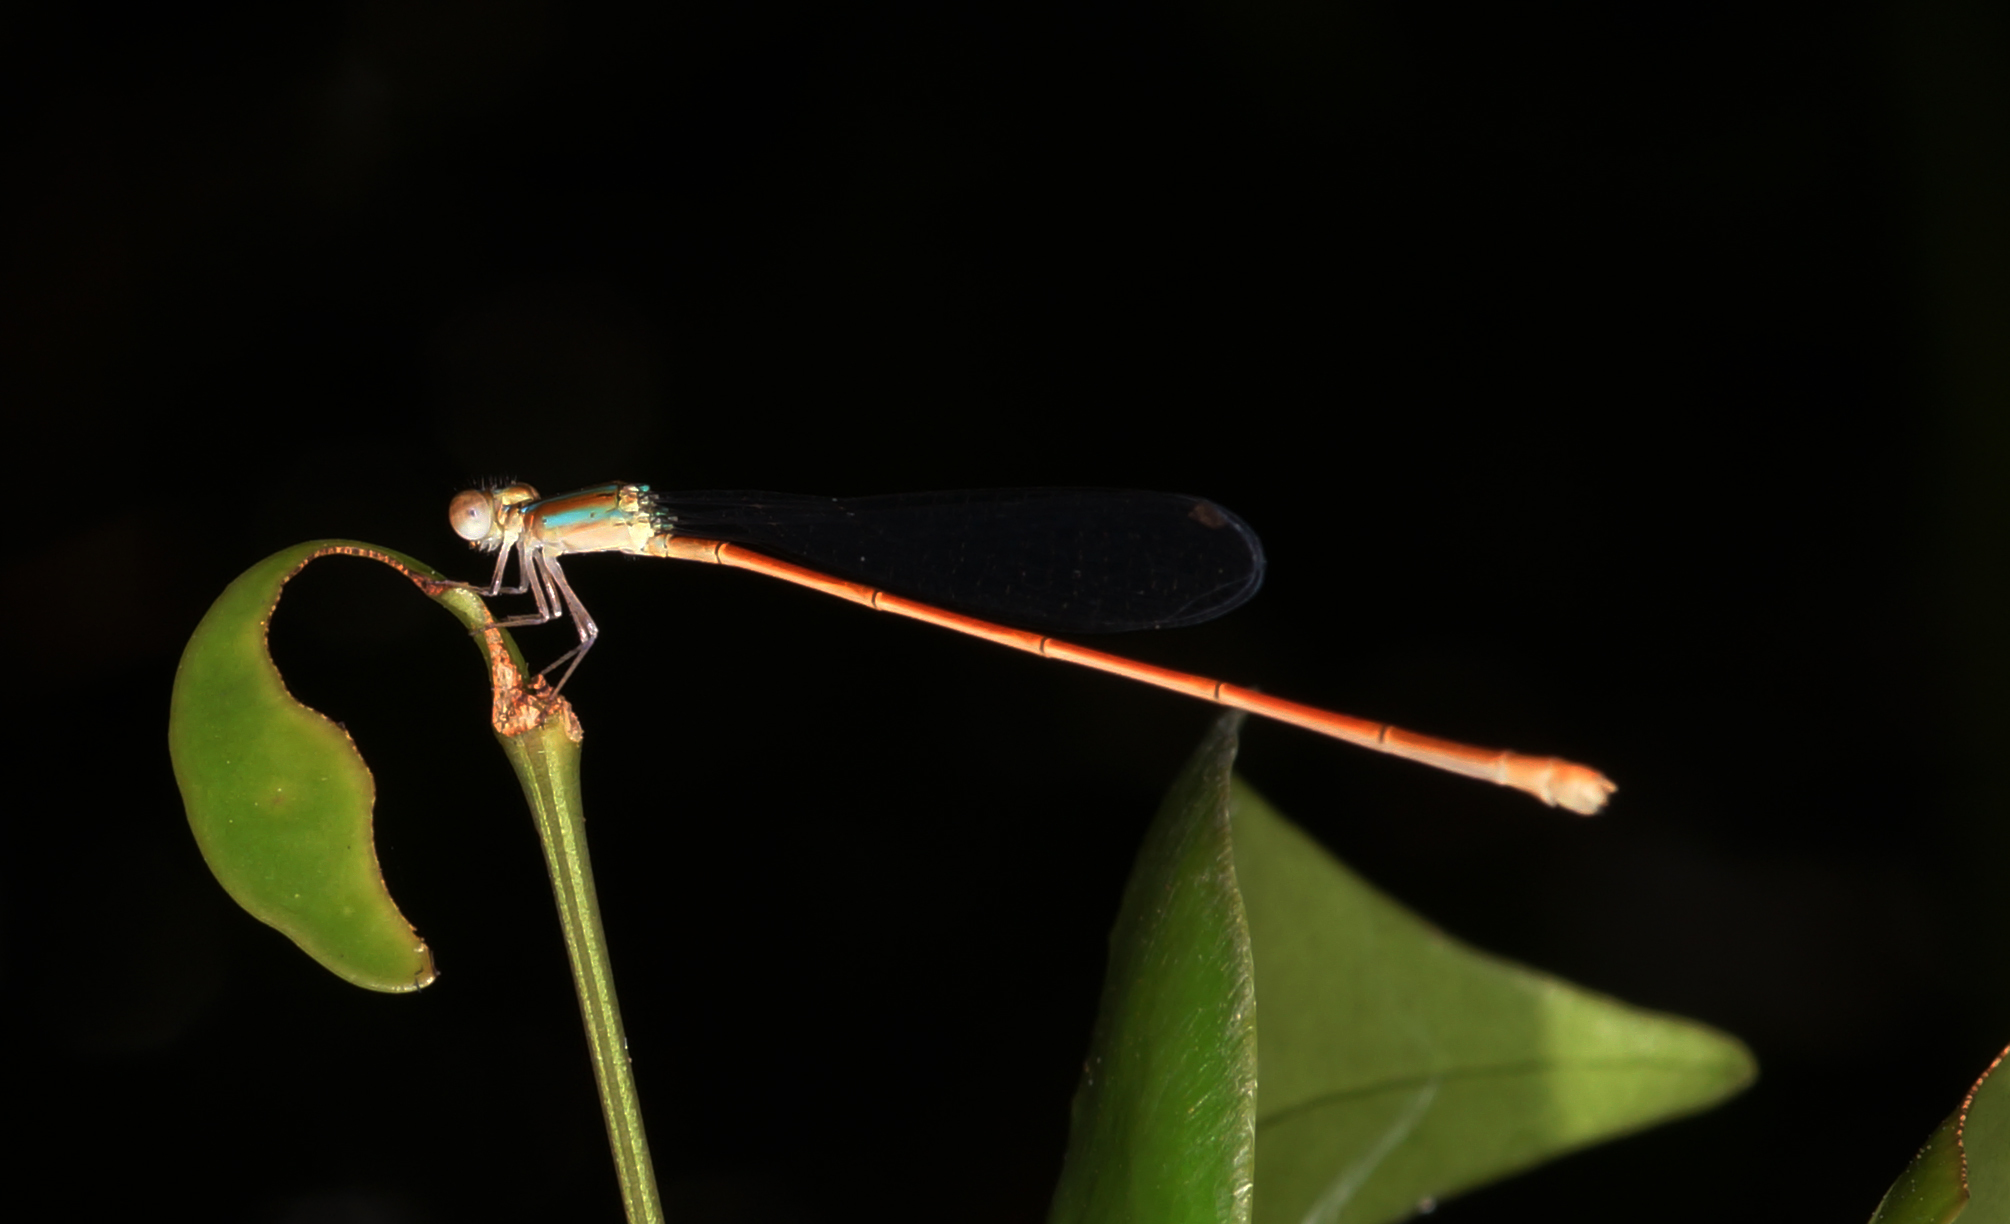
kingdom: Animalia
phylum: Arthropoda
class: Insecta
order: Odonata
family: Coenagrionidae
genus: Aciagrion
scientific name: Aciagrion pallidum
